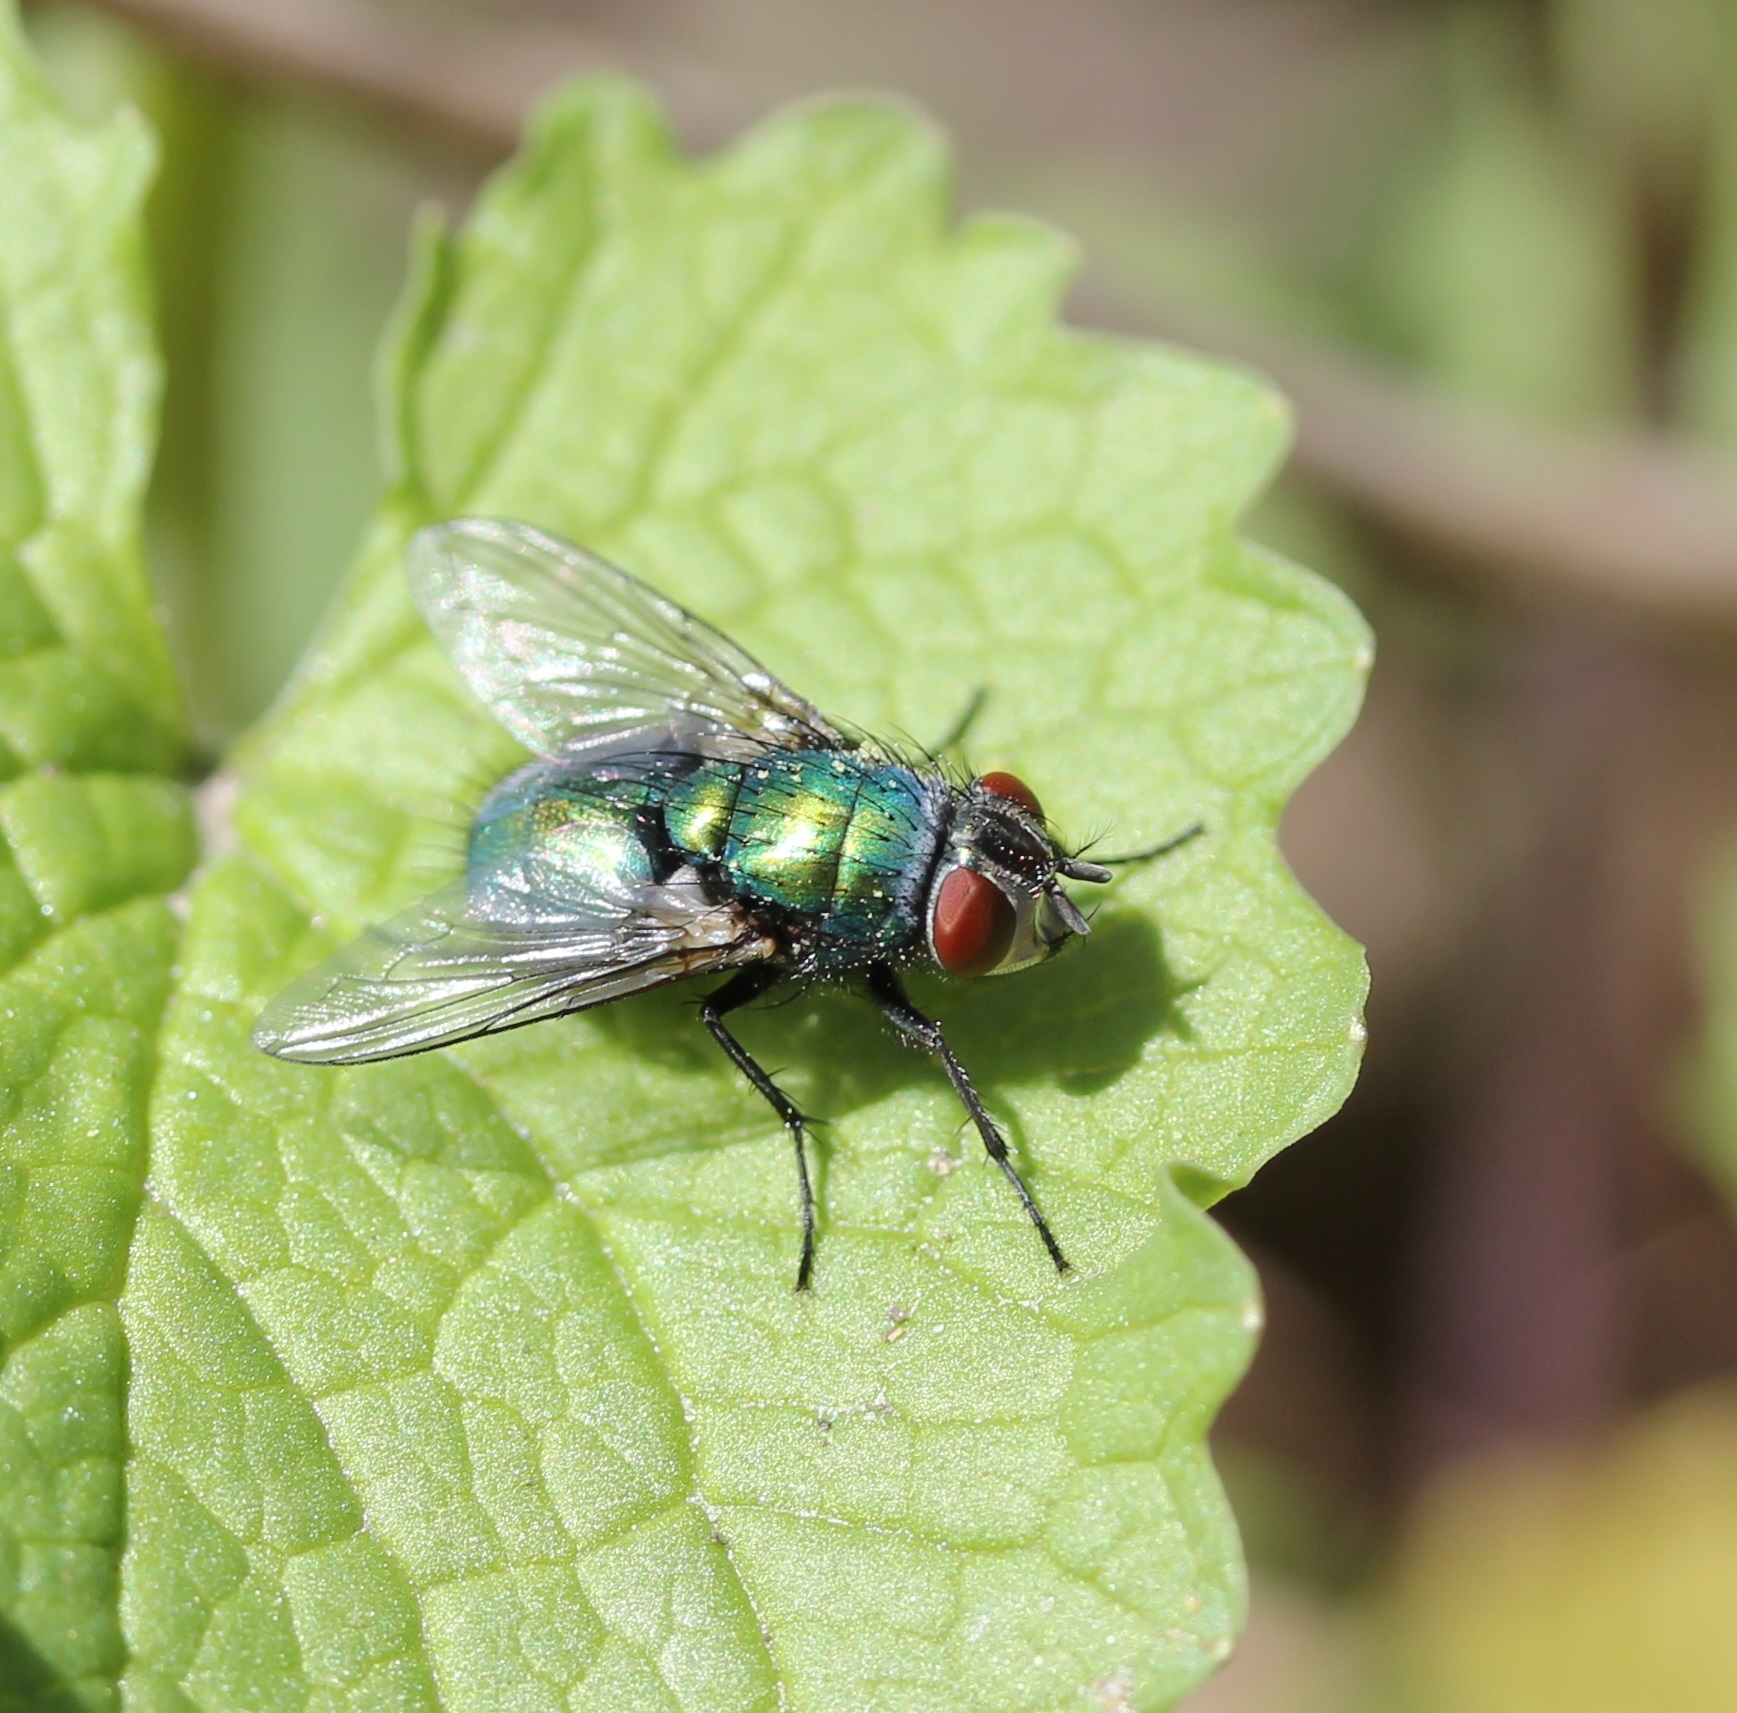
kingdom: Animalia
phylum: Arthropoda
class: Insecta
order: Diptera
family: Calliphoridae
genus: Lucilia
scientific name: Lucilia sericata
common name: Blow fly
